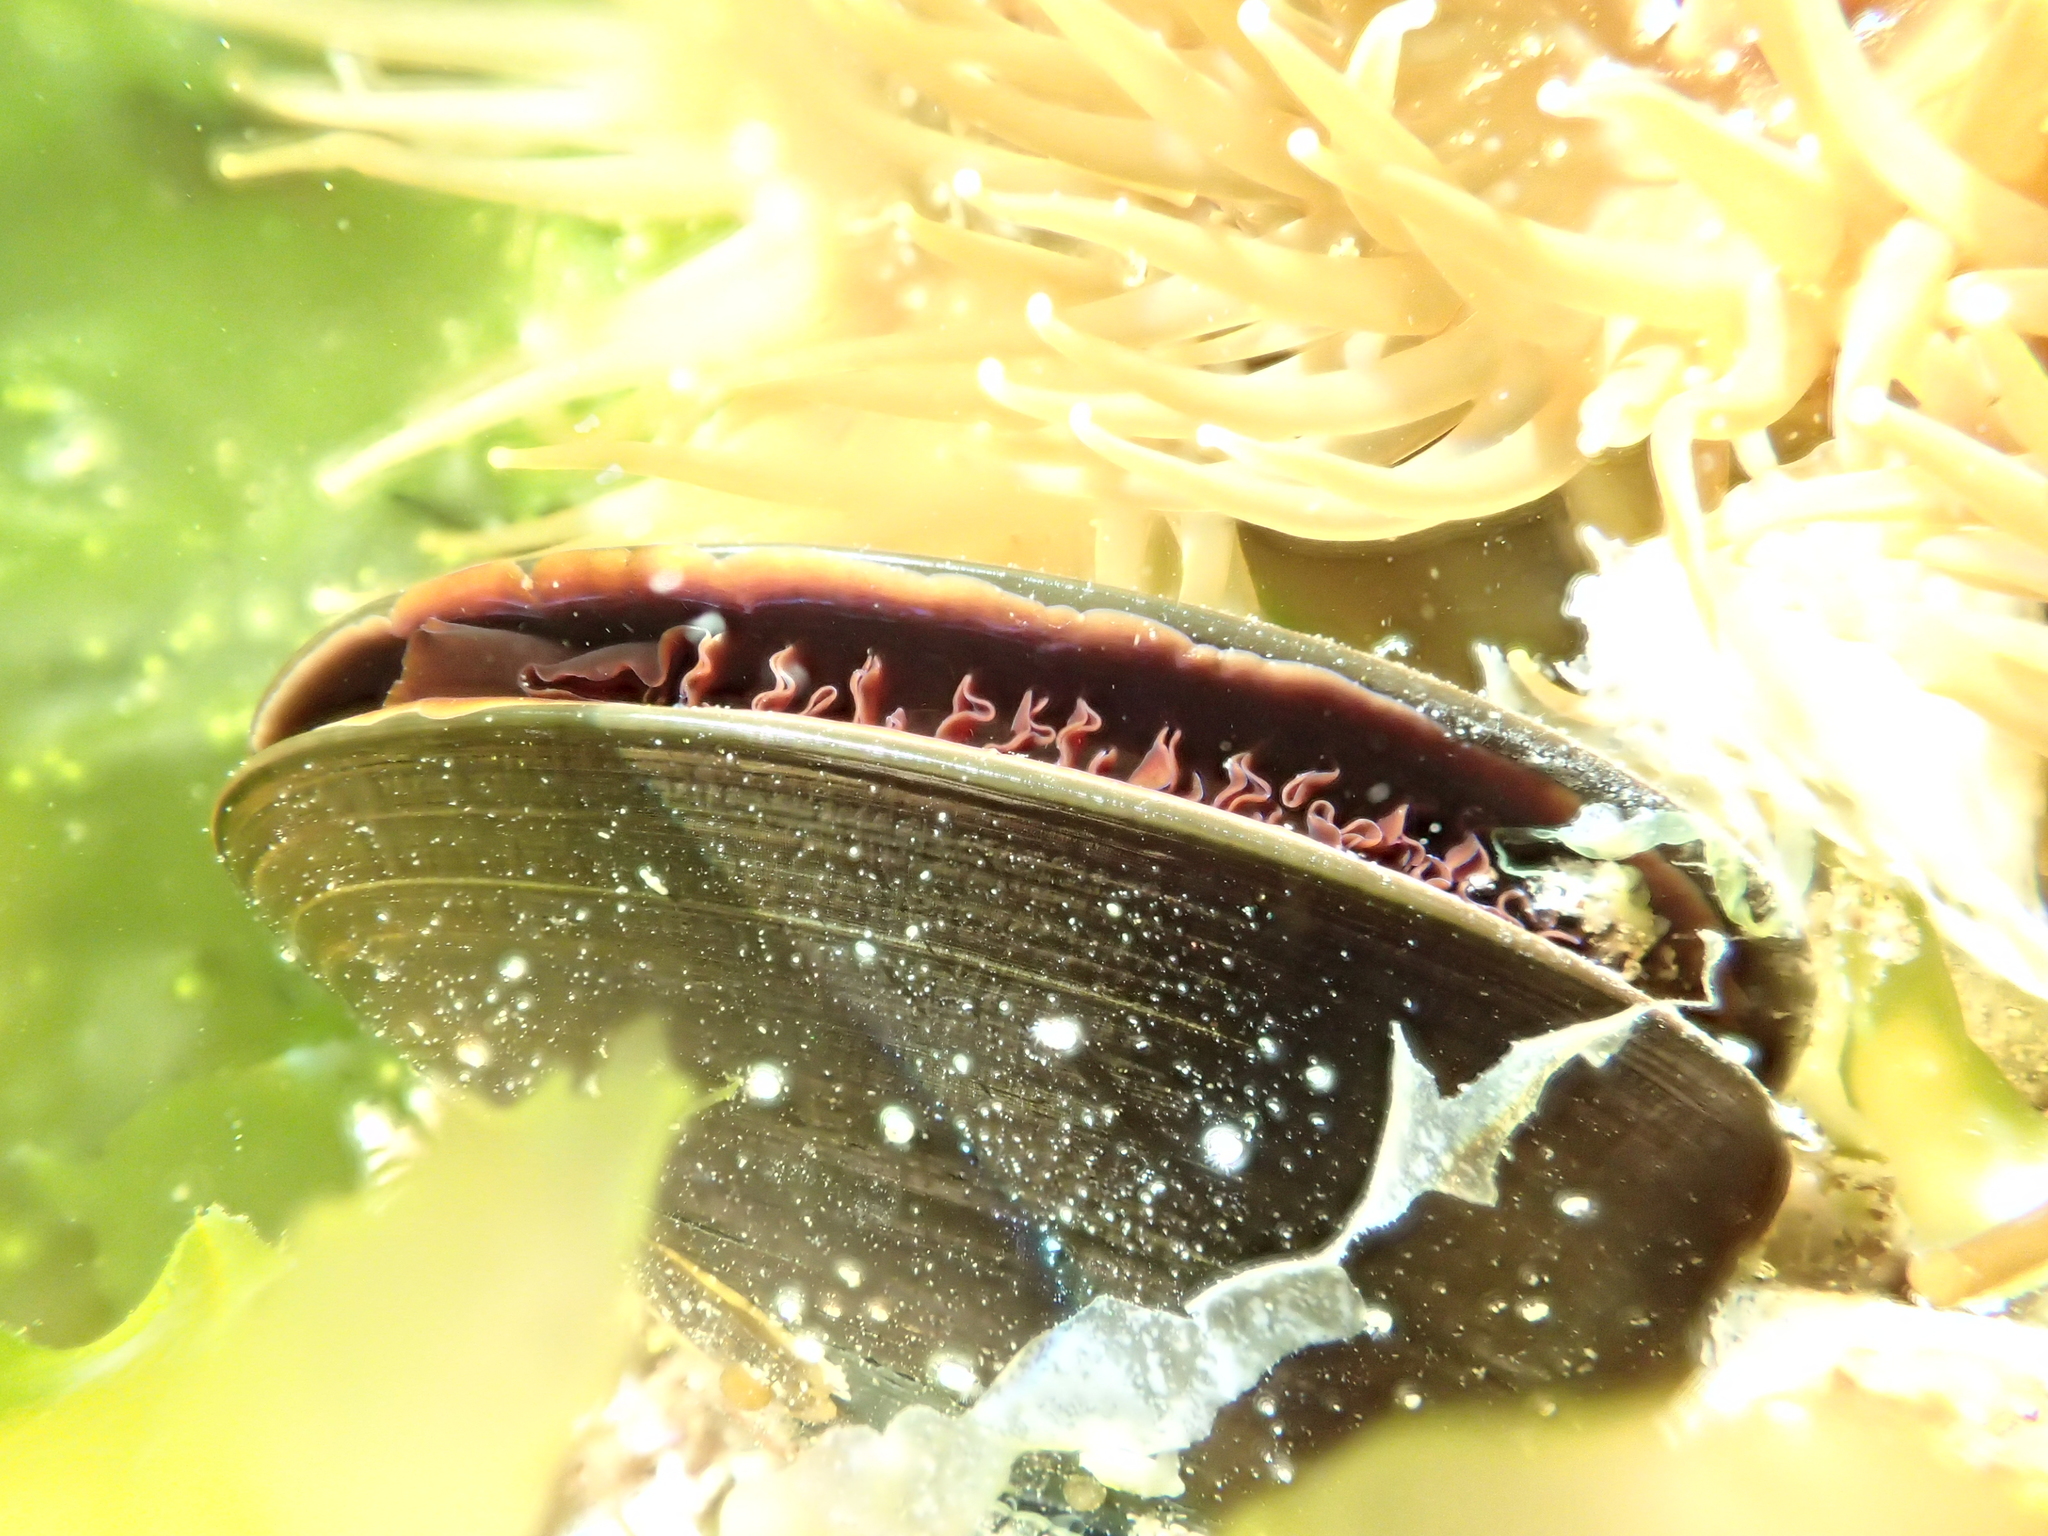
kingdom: Animalia
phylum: Mollusca
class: Bivalvia
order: Mytilida
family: Mytilidae
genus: Perna
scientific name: Perna canaliculus
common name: New zealand greenshelltm
